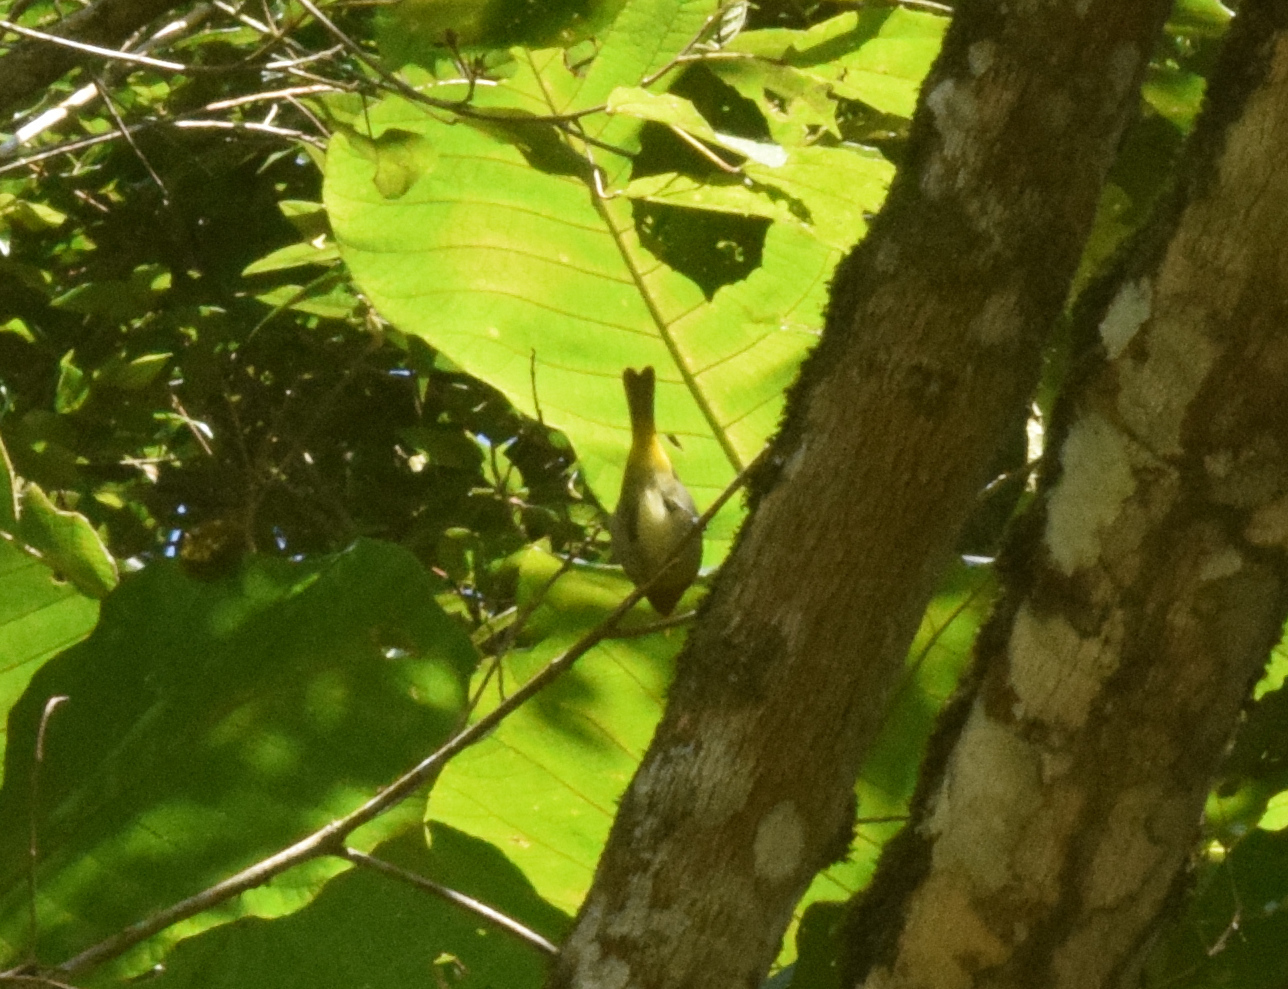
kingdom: Animalia
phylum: Chordata
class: Aves
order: Passeriformes
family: Thraupidae
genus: Hemithraupis
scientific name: Hemithraupis ruficapilla
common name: Rufous-headed tanager
